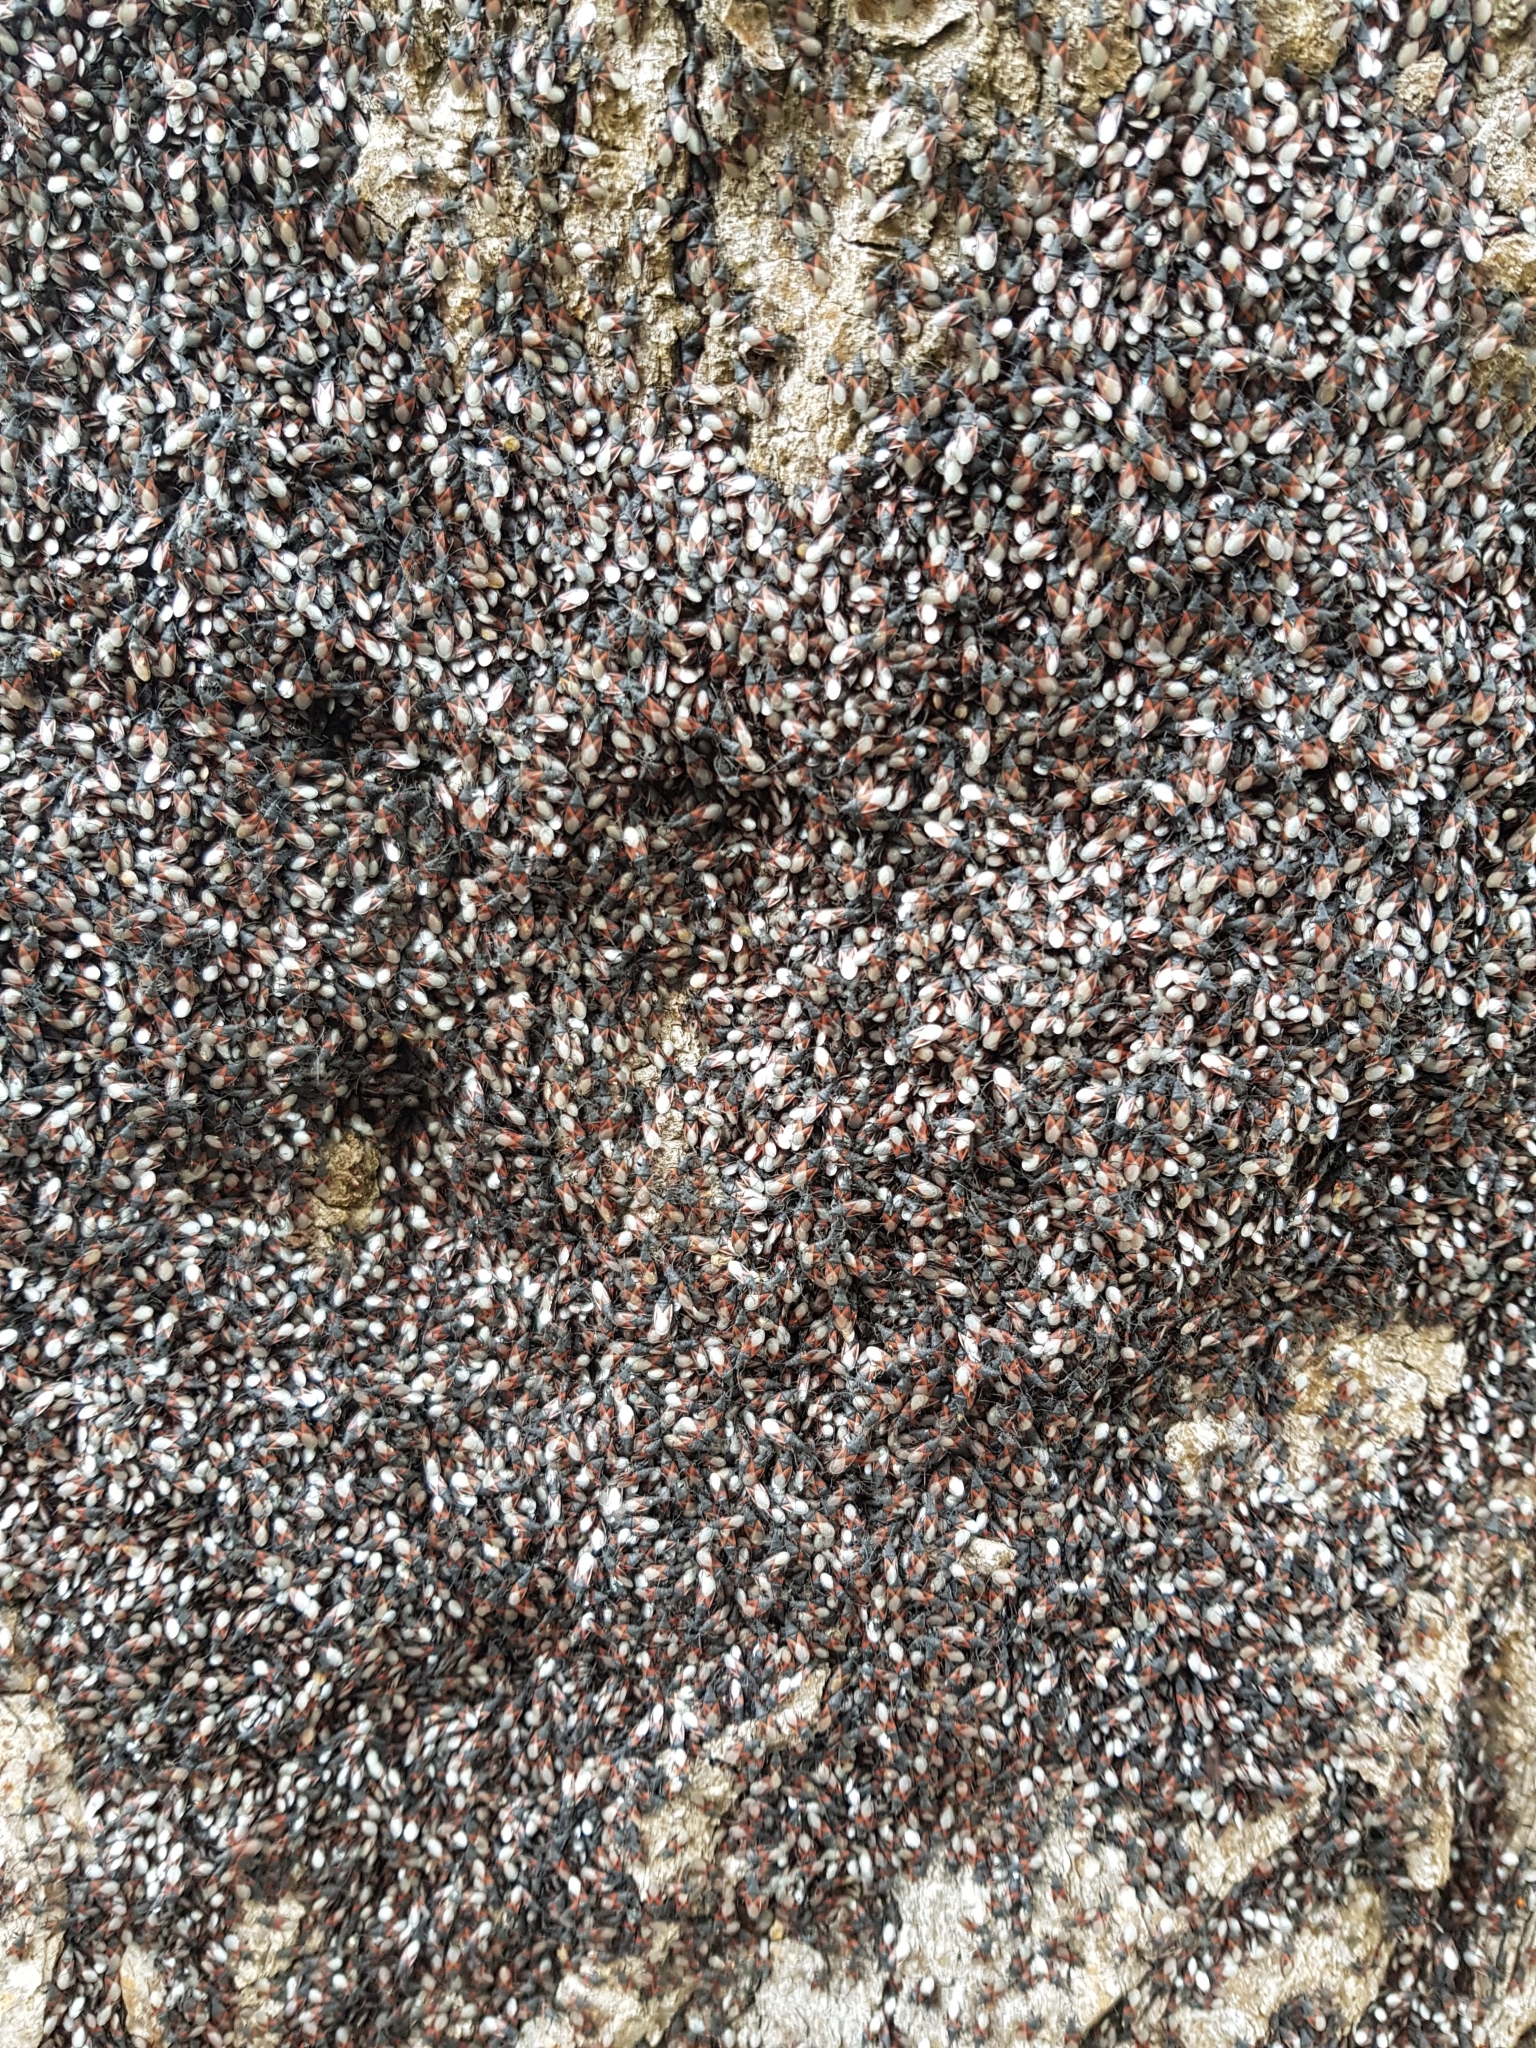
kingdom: Animalia
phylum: Arthropoda
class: Insecta
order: Hemiptera
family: Oxycarenidae
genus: Oxycarenus
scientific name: Oxycarenus lavaterae
